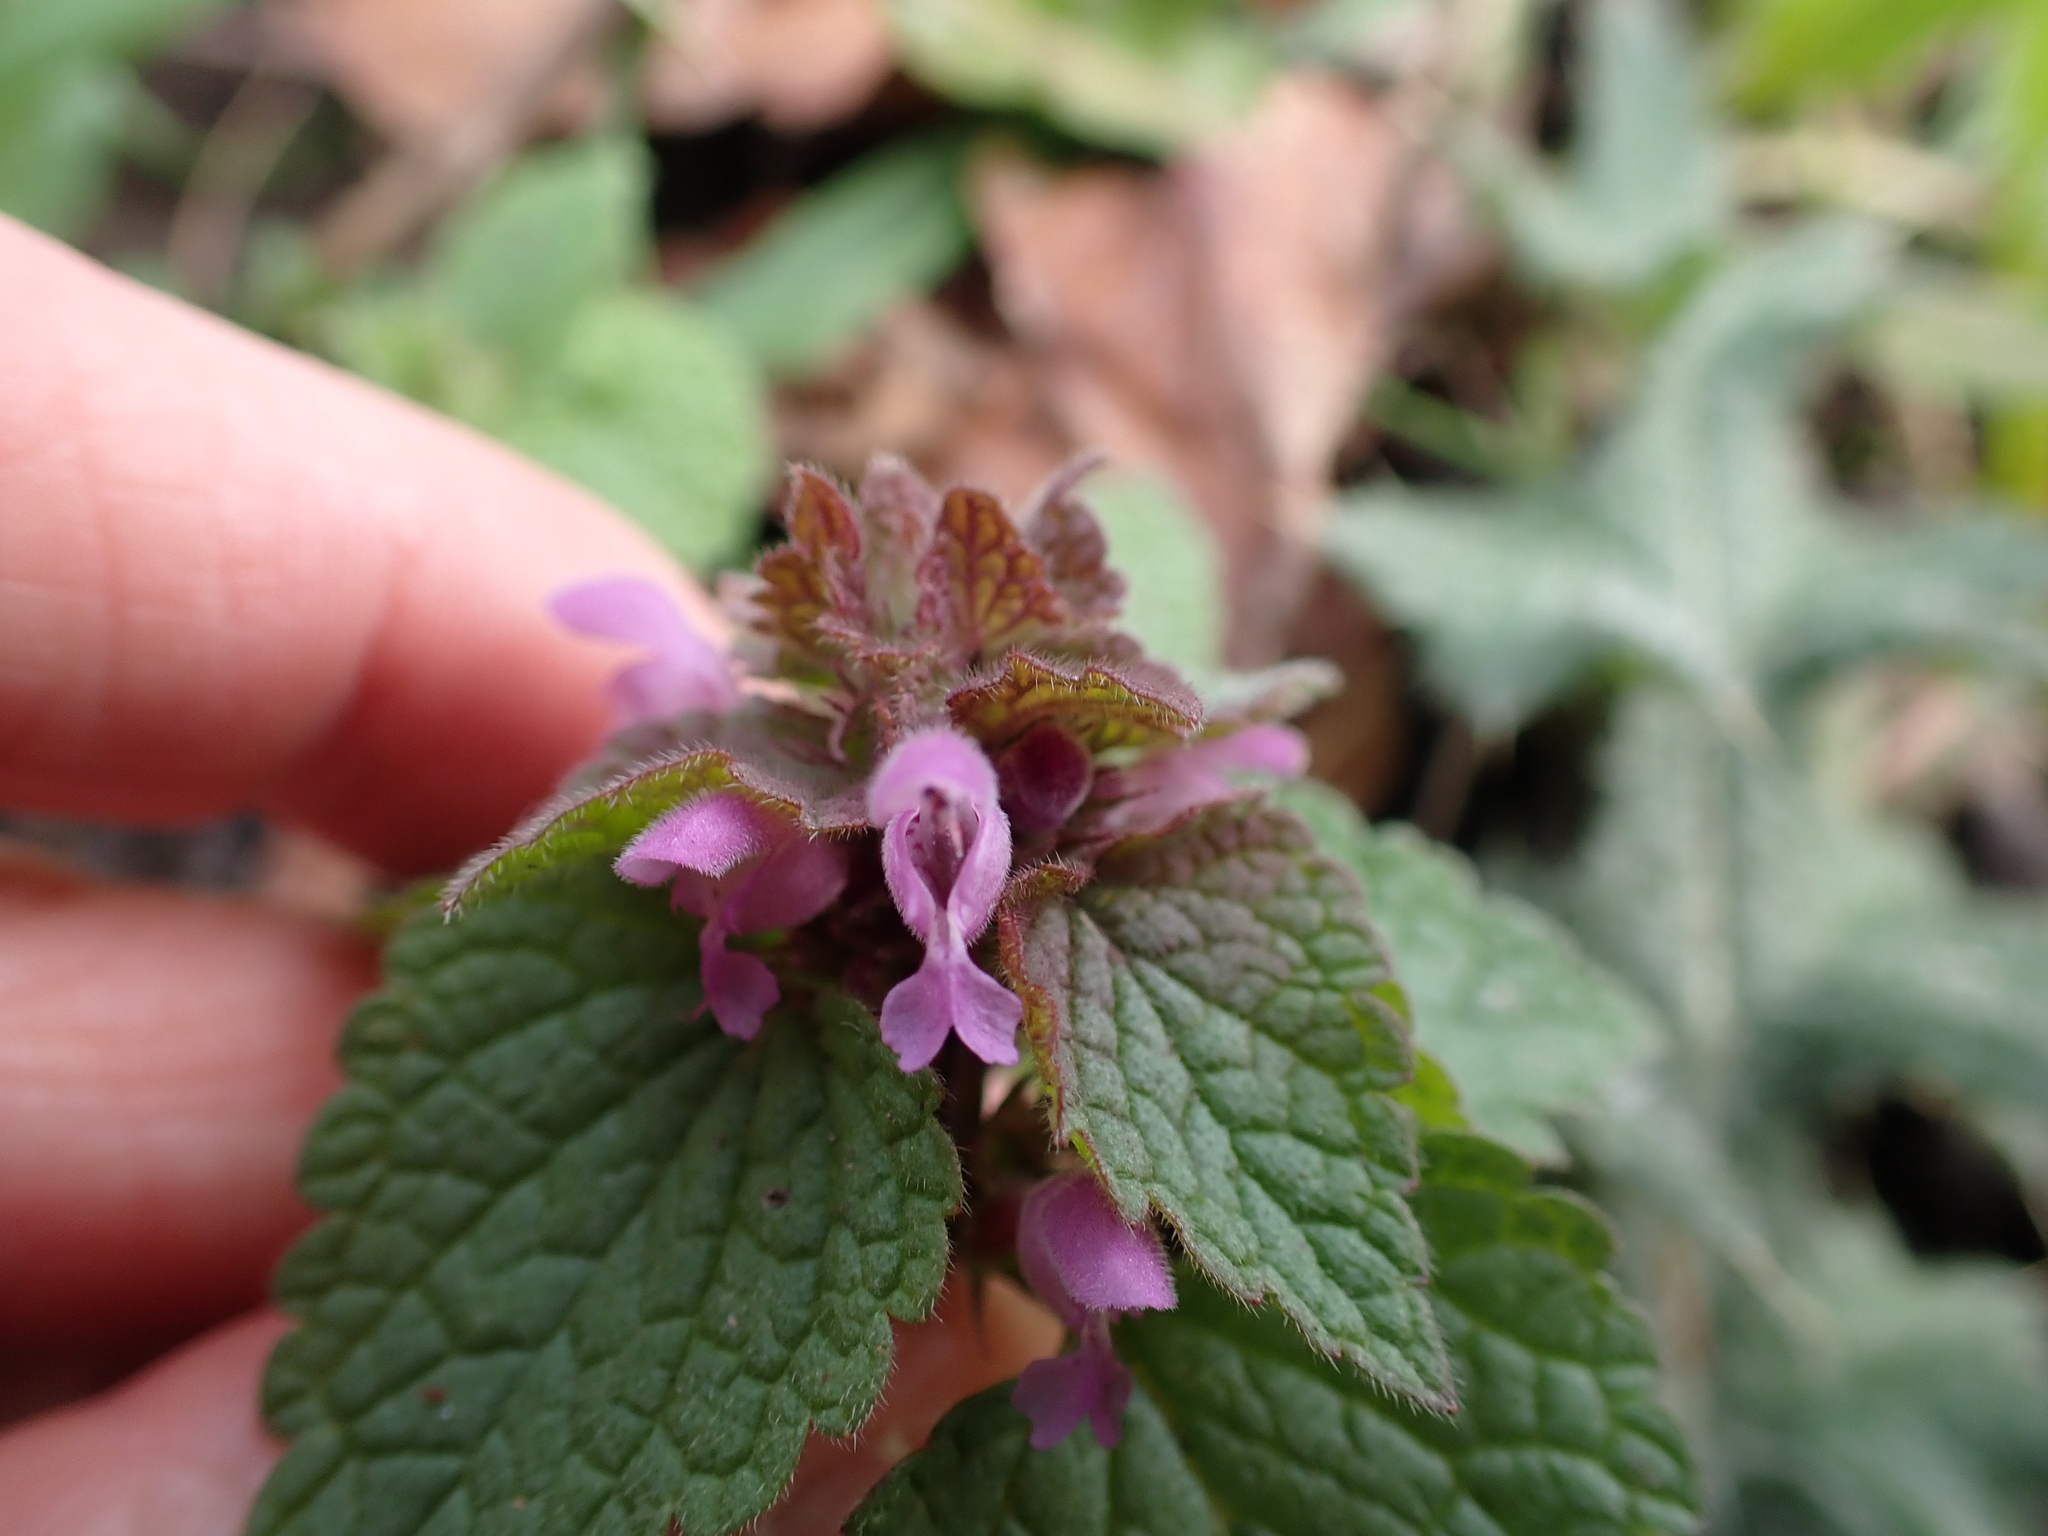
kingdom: Plantae
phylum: Tracheophyta
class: Magnoliopsida
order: Lamiales
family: Lamiaceae
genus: Lamium
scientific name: Lamium purpureum
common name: Red dead-nettle
